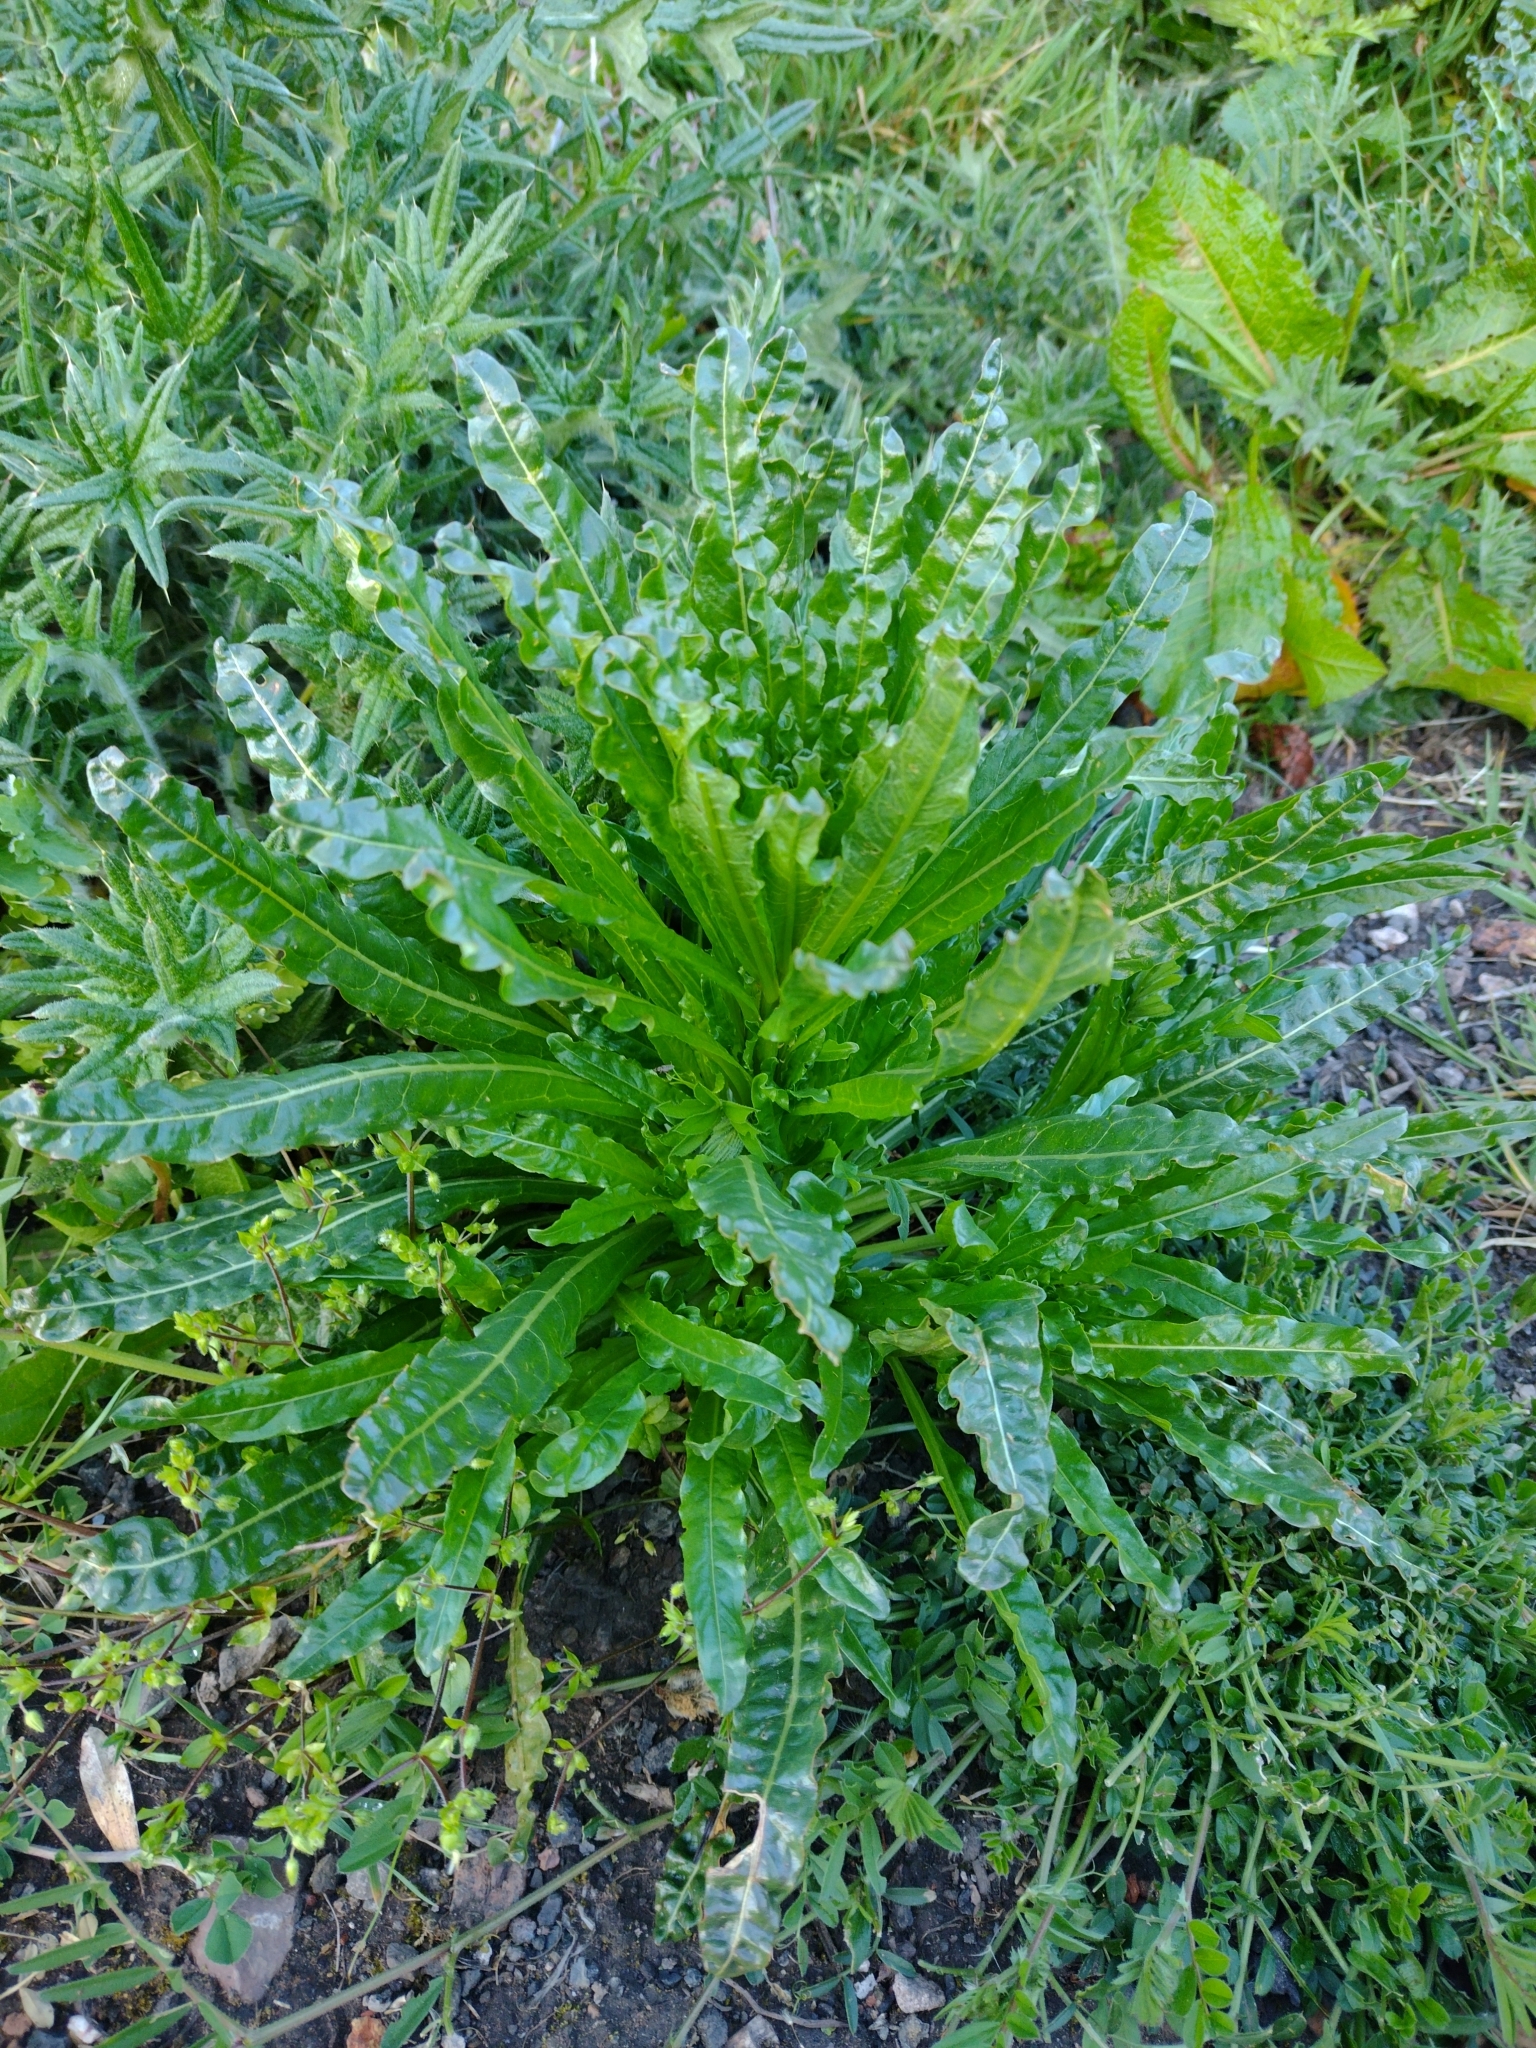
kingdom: Plantae
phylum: Tracheophyta
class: Magnoliopsida
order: Brassicales
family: Resedaceae
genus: Reseda
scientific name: Reseda luteola
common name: Weld
